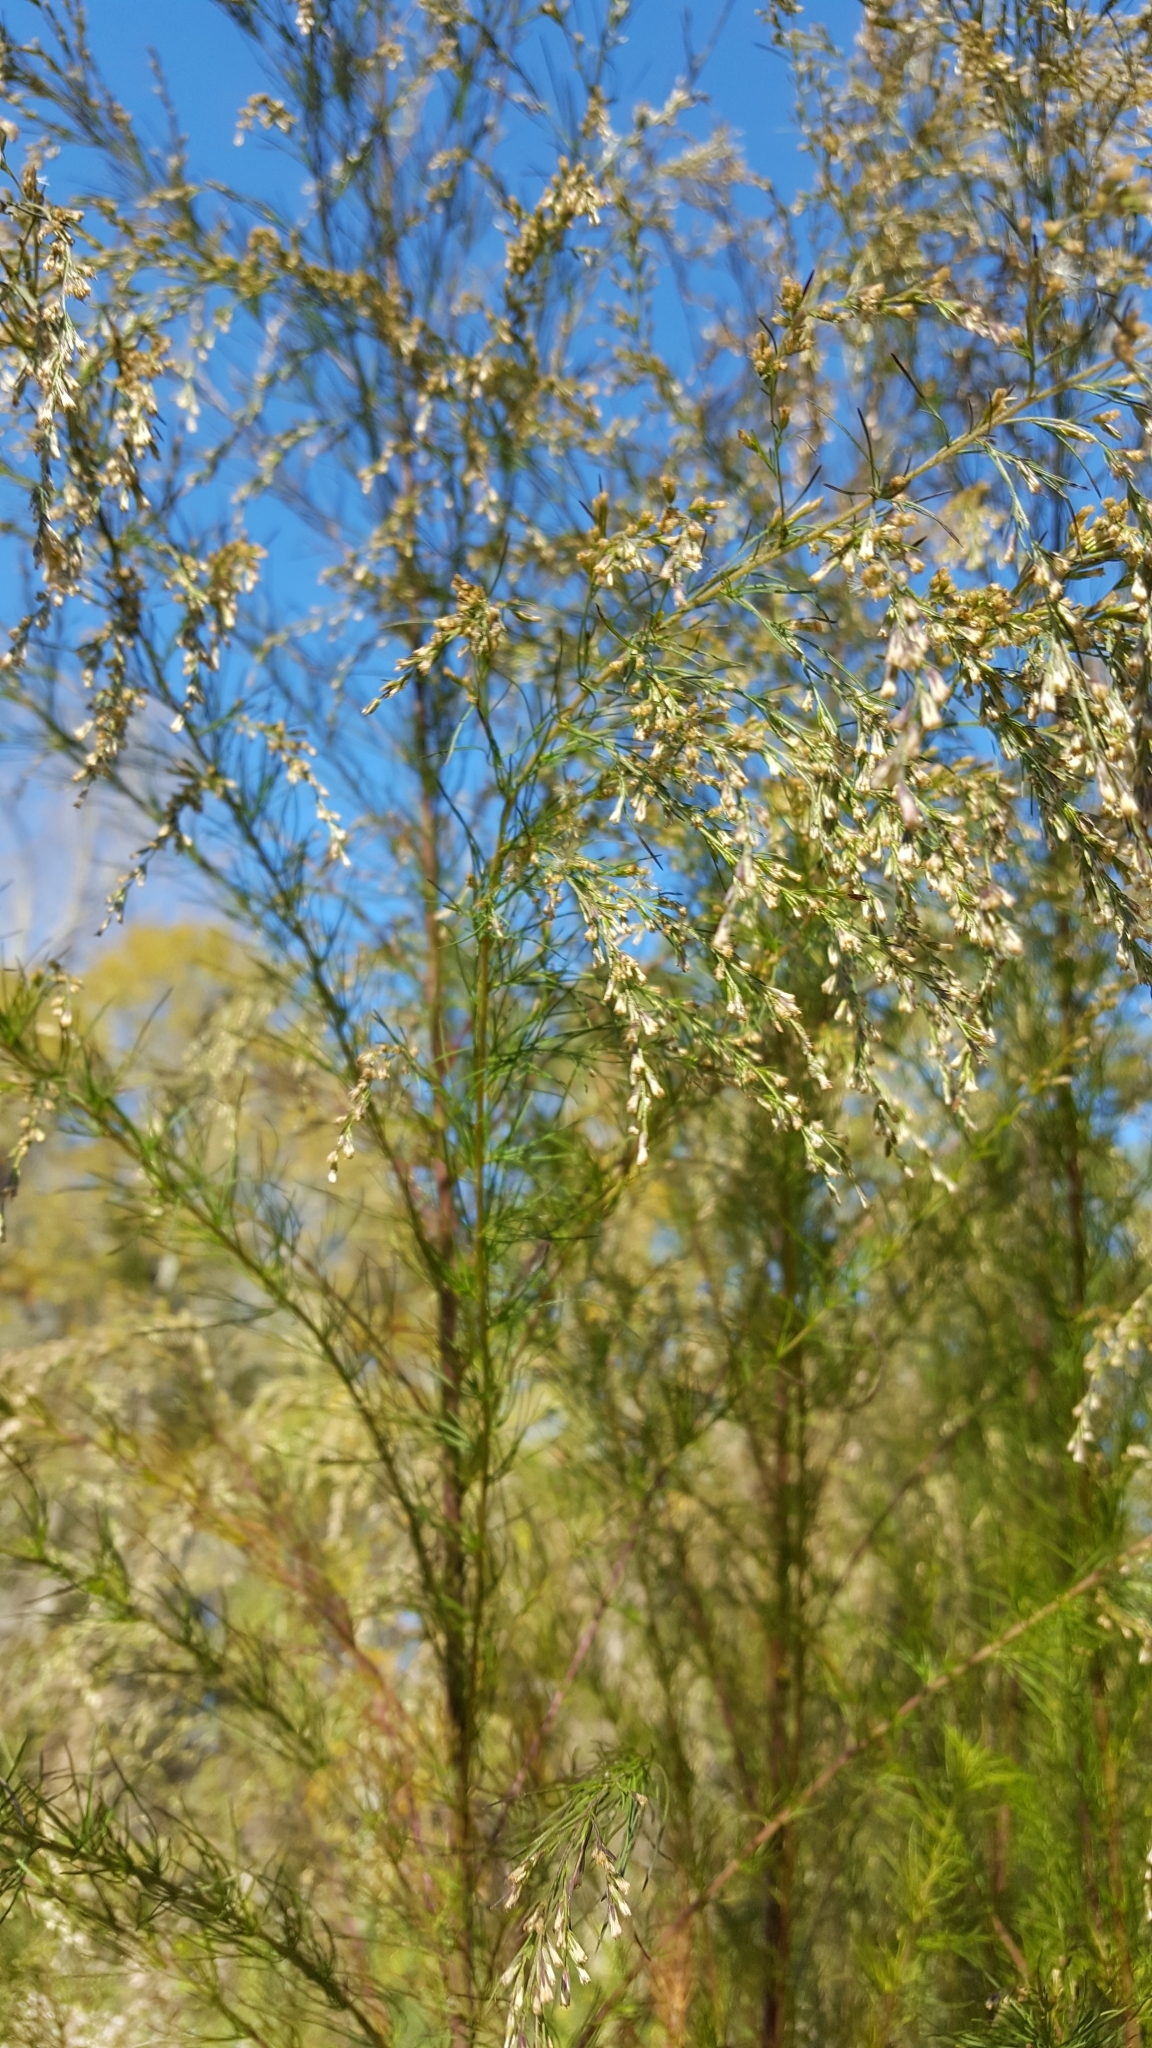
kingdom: Plantae
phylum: Tracheophyta
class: Magnoliopsida
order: Asterales
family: Asteraceae
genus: Eupatorium
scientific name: Eupatorium capillifolium
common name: Dog-fennel
